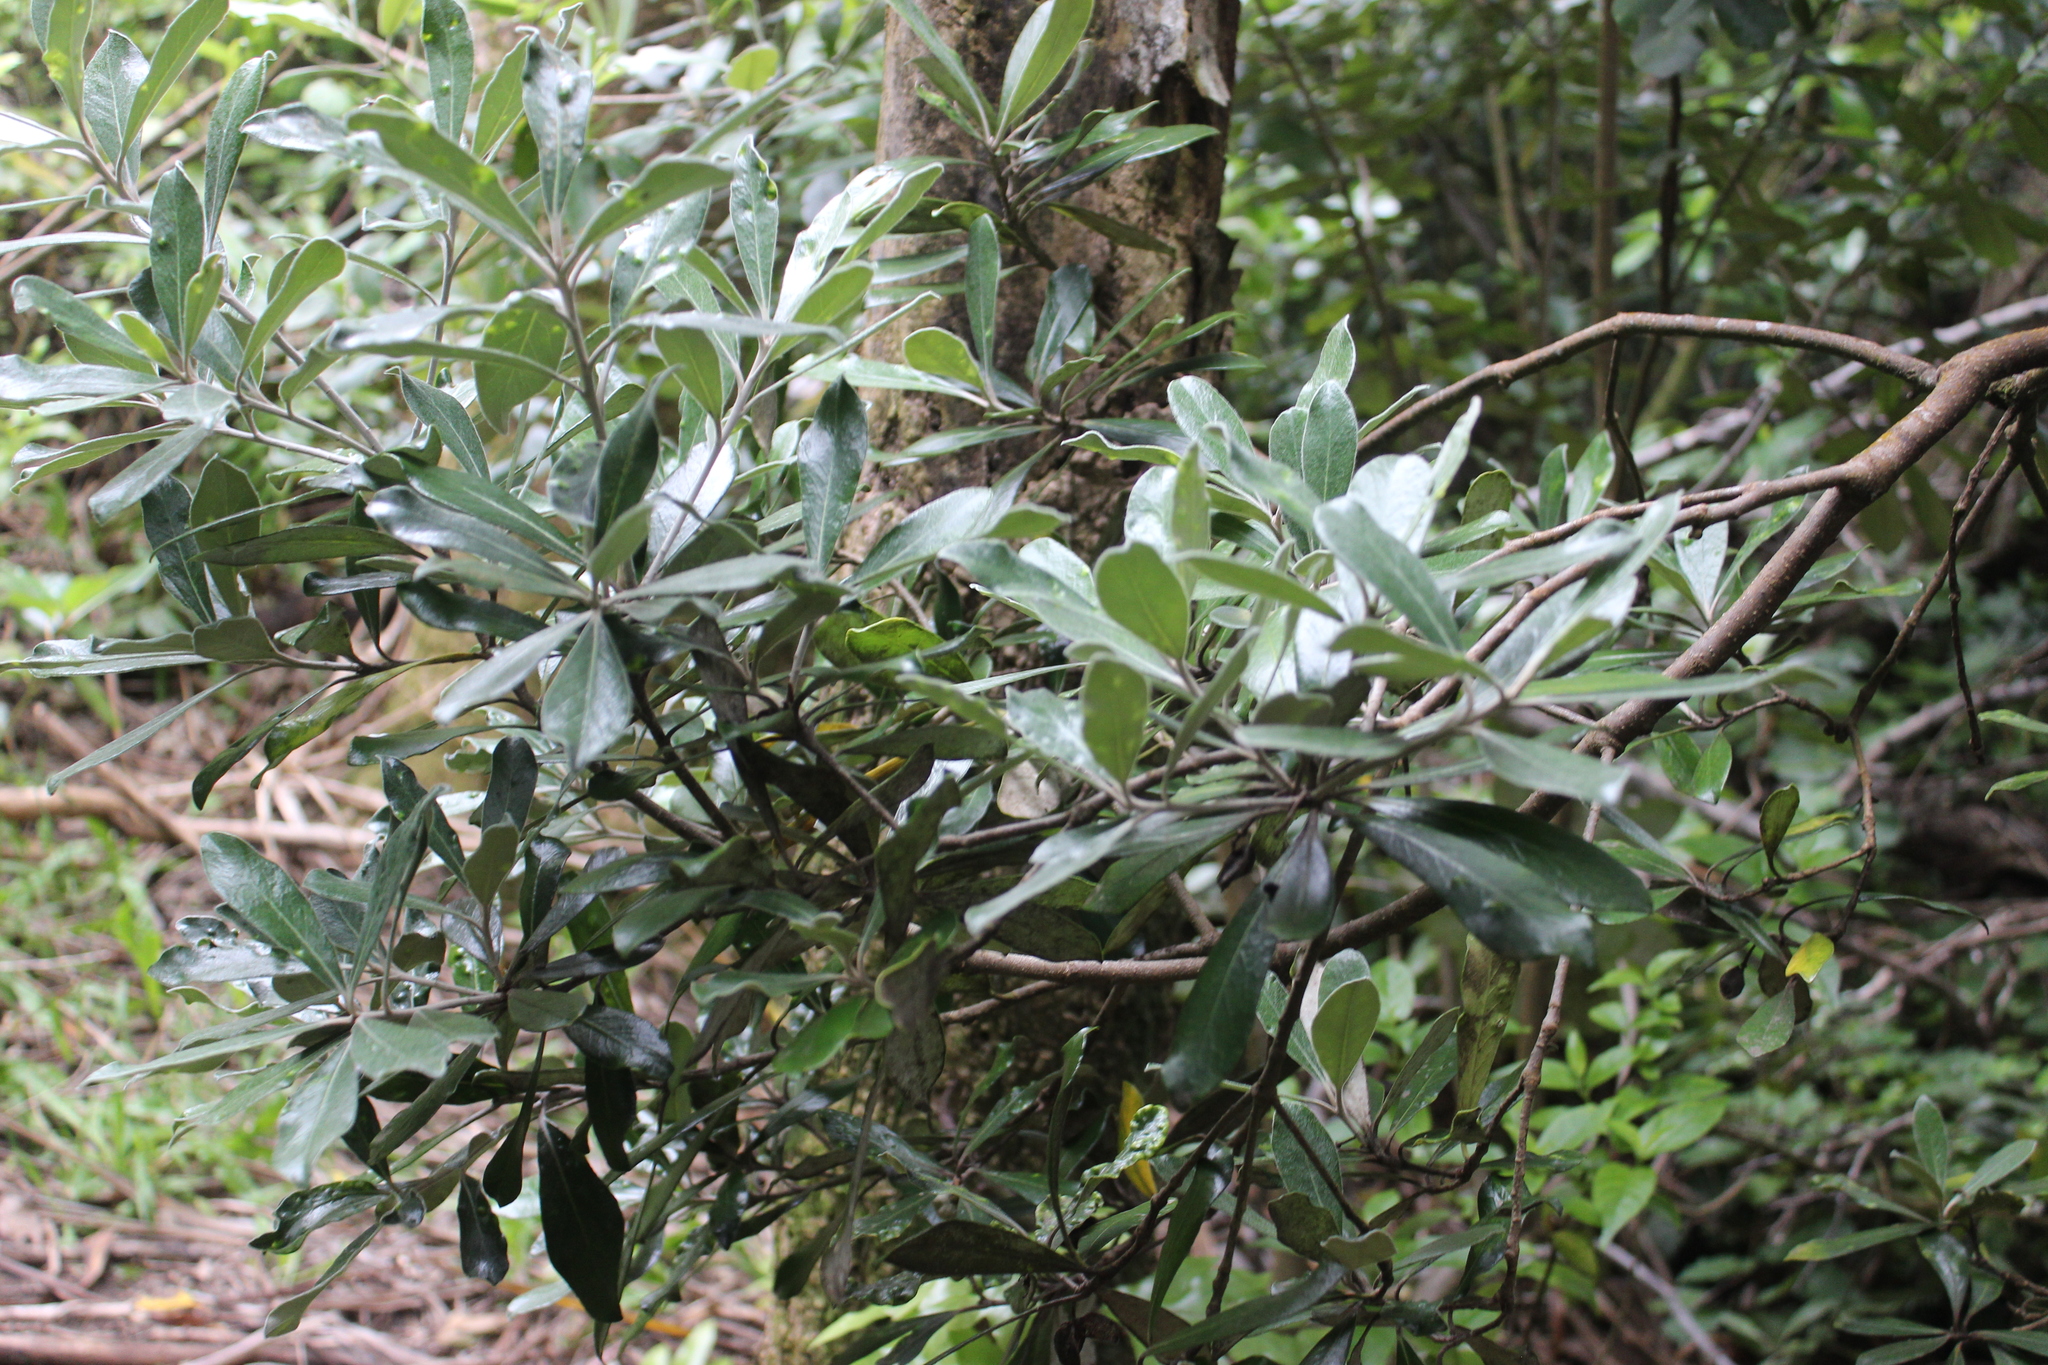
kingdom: Plantae
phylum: Tracheophyta
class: Magnoliopsida
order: Apiales
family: Pittosporaceae
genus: Pittosporum
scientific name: Pittosporum crassifolium
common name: Karo
